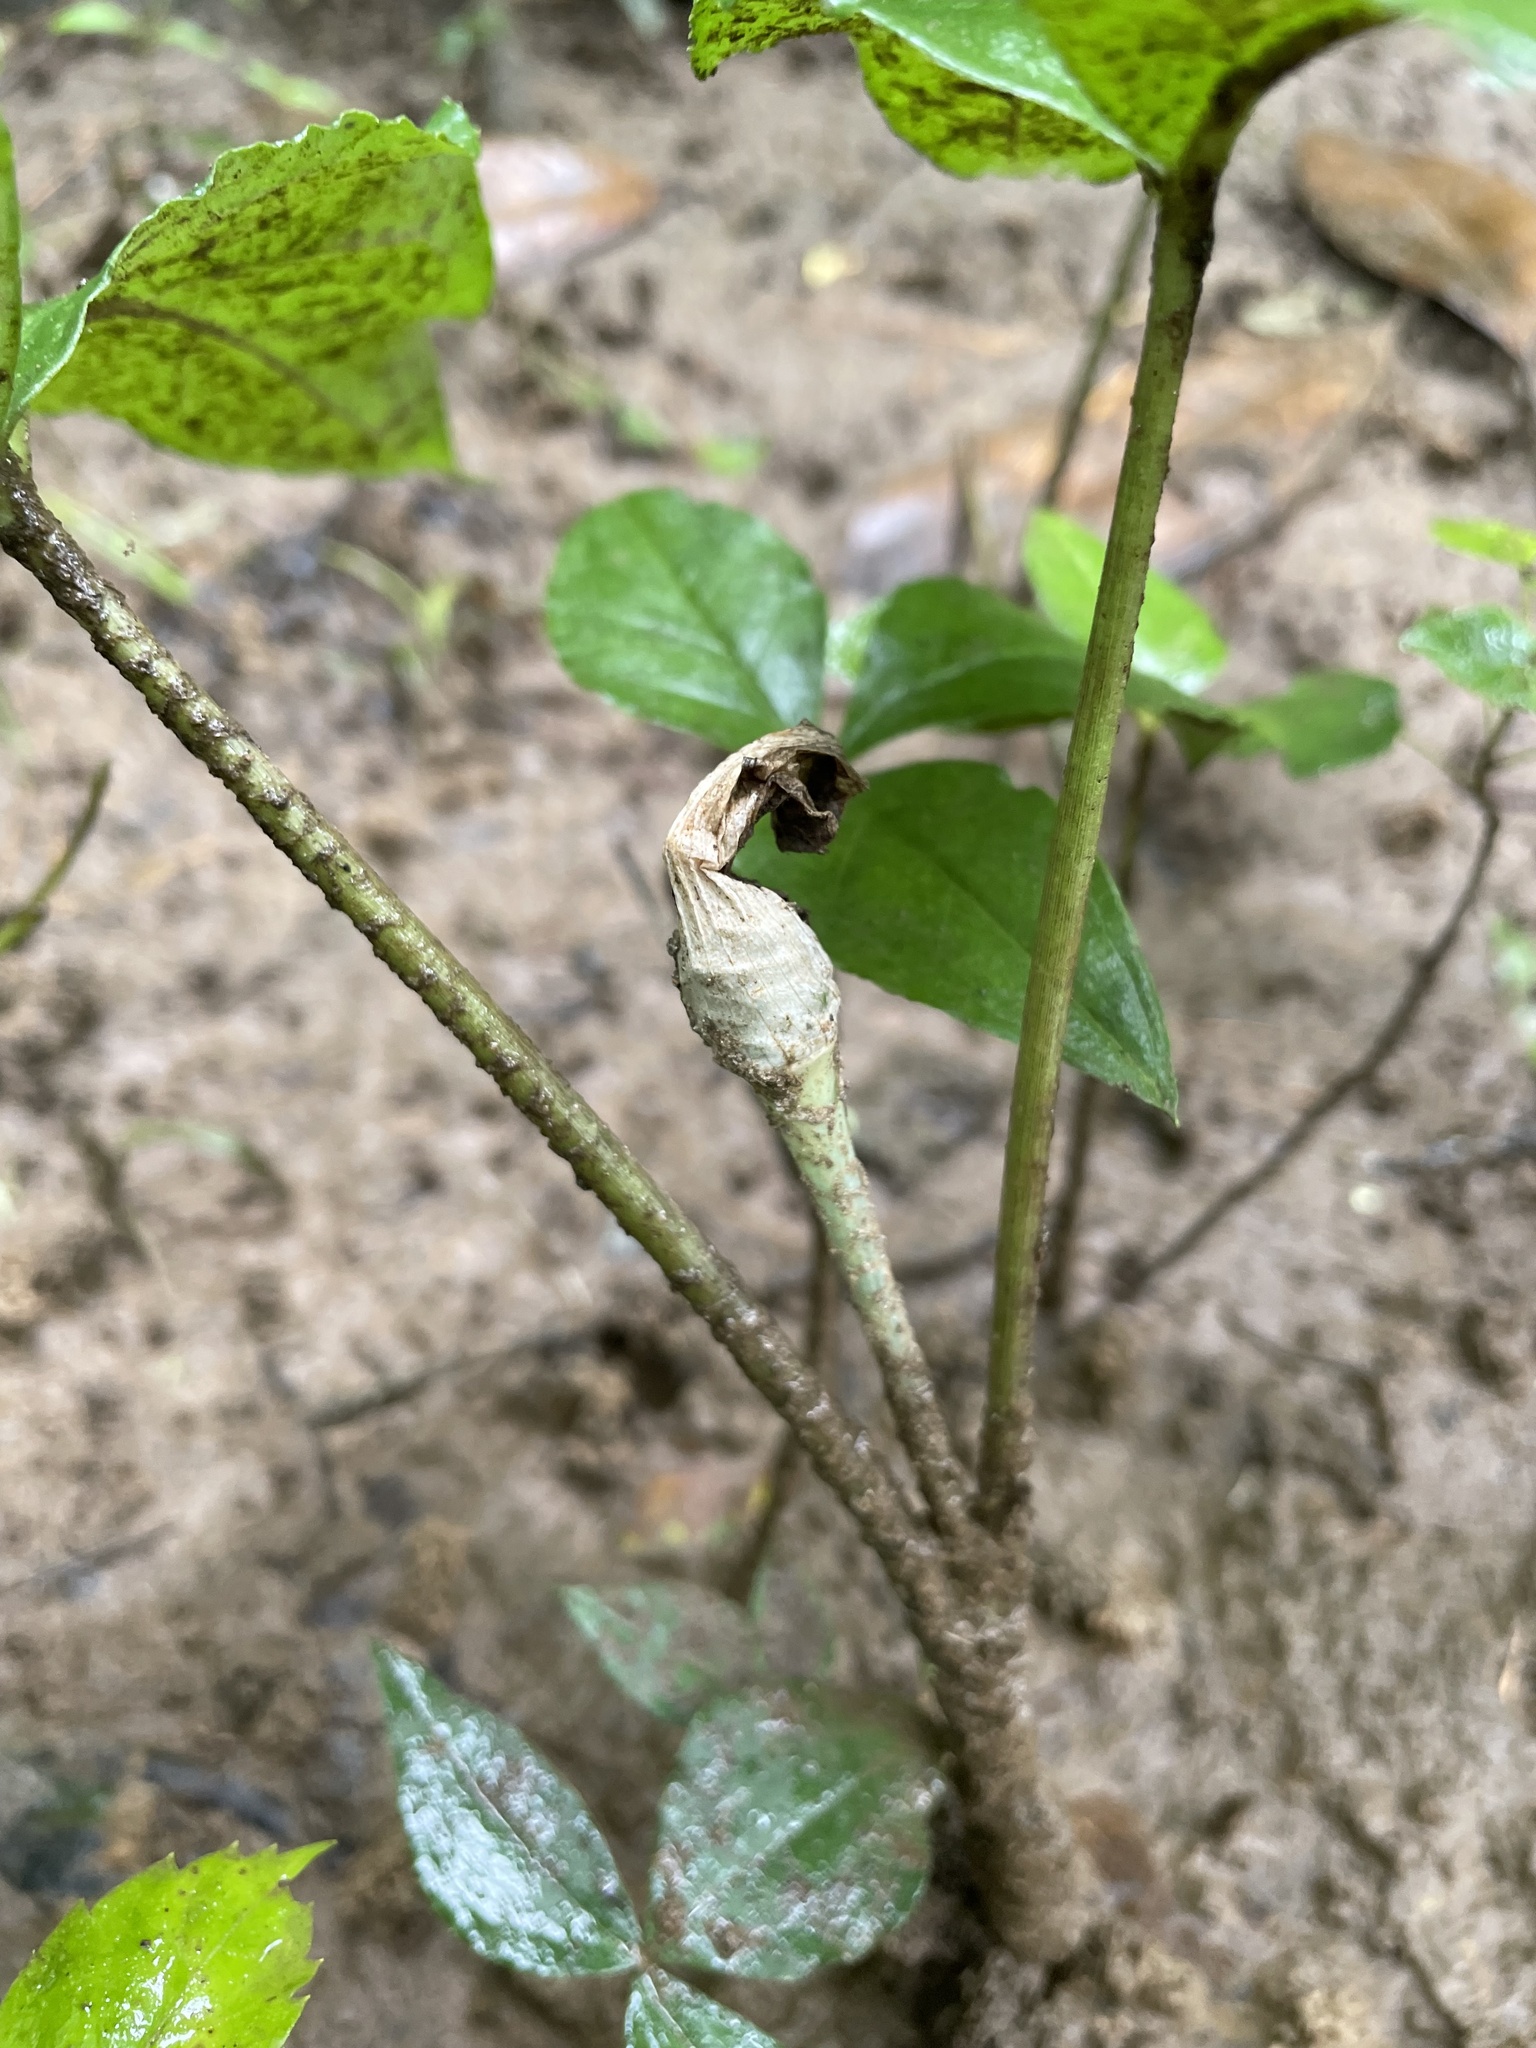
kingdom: Plantae
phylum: Tracheophyta
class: Liliopsida
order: Alismatales
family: Araceae
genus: Arisaema
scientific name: Arisaema triphyllum
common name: Jack-in-the-pulpit
